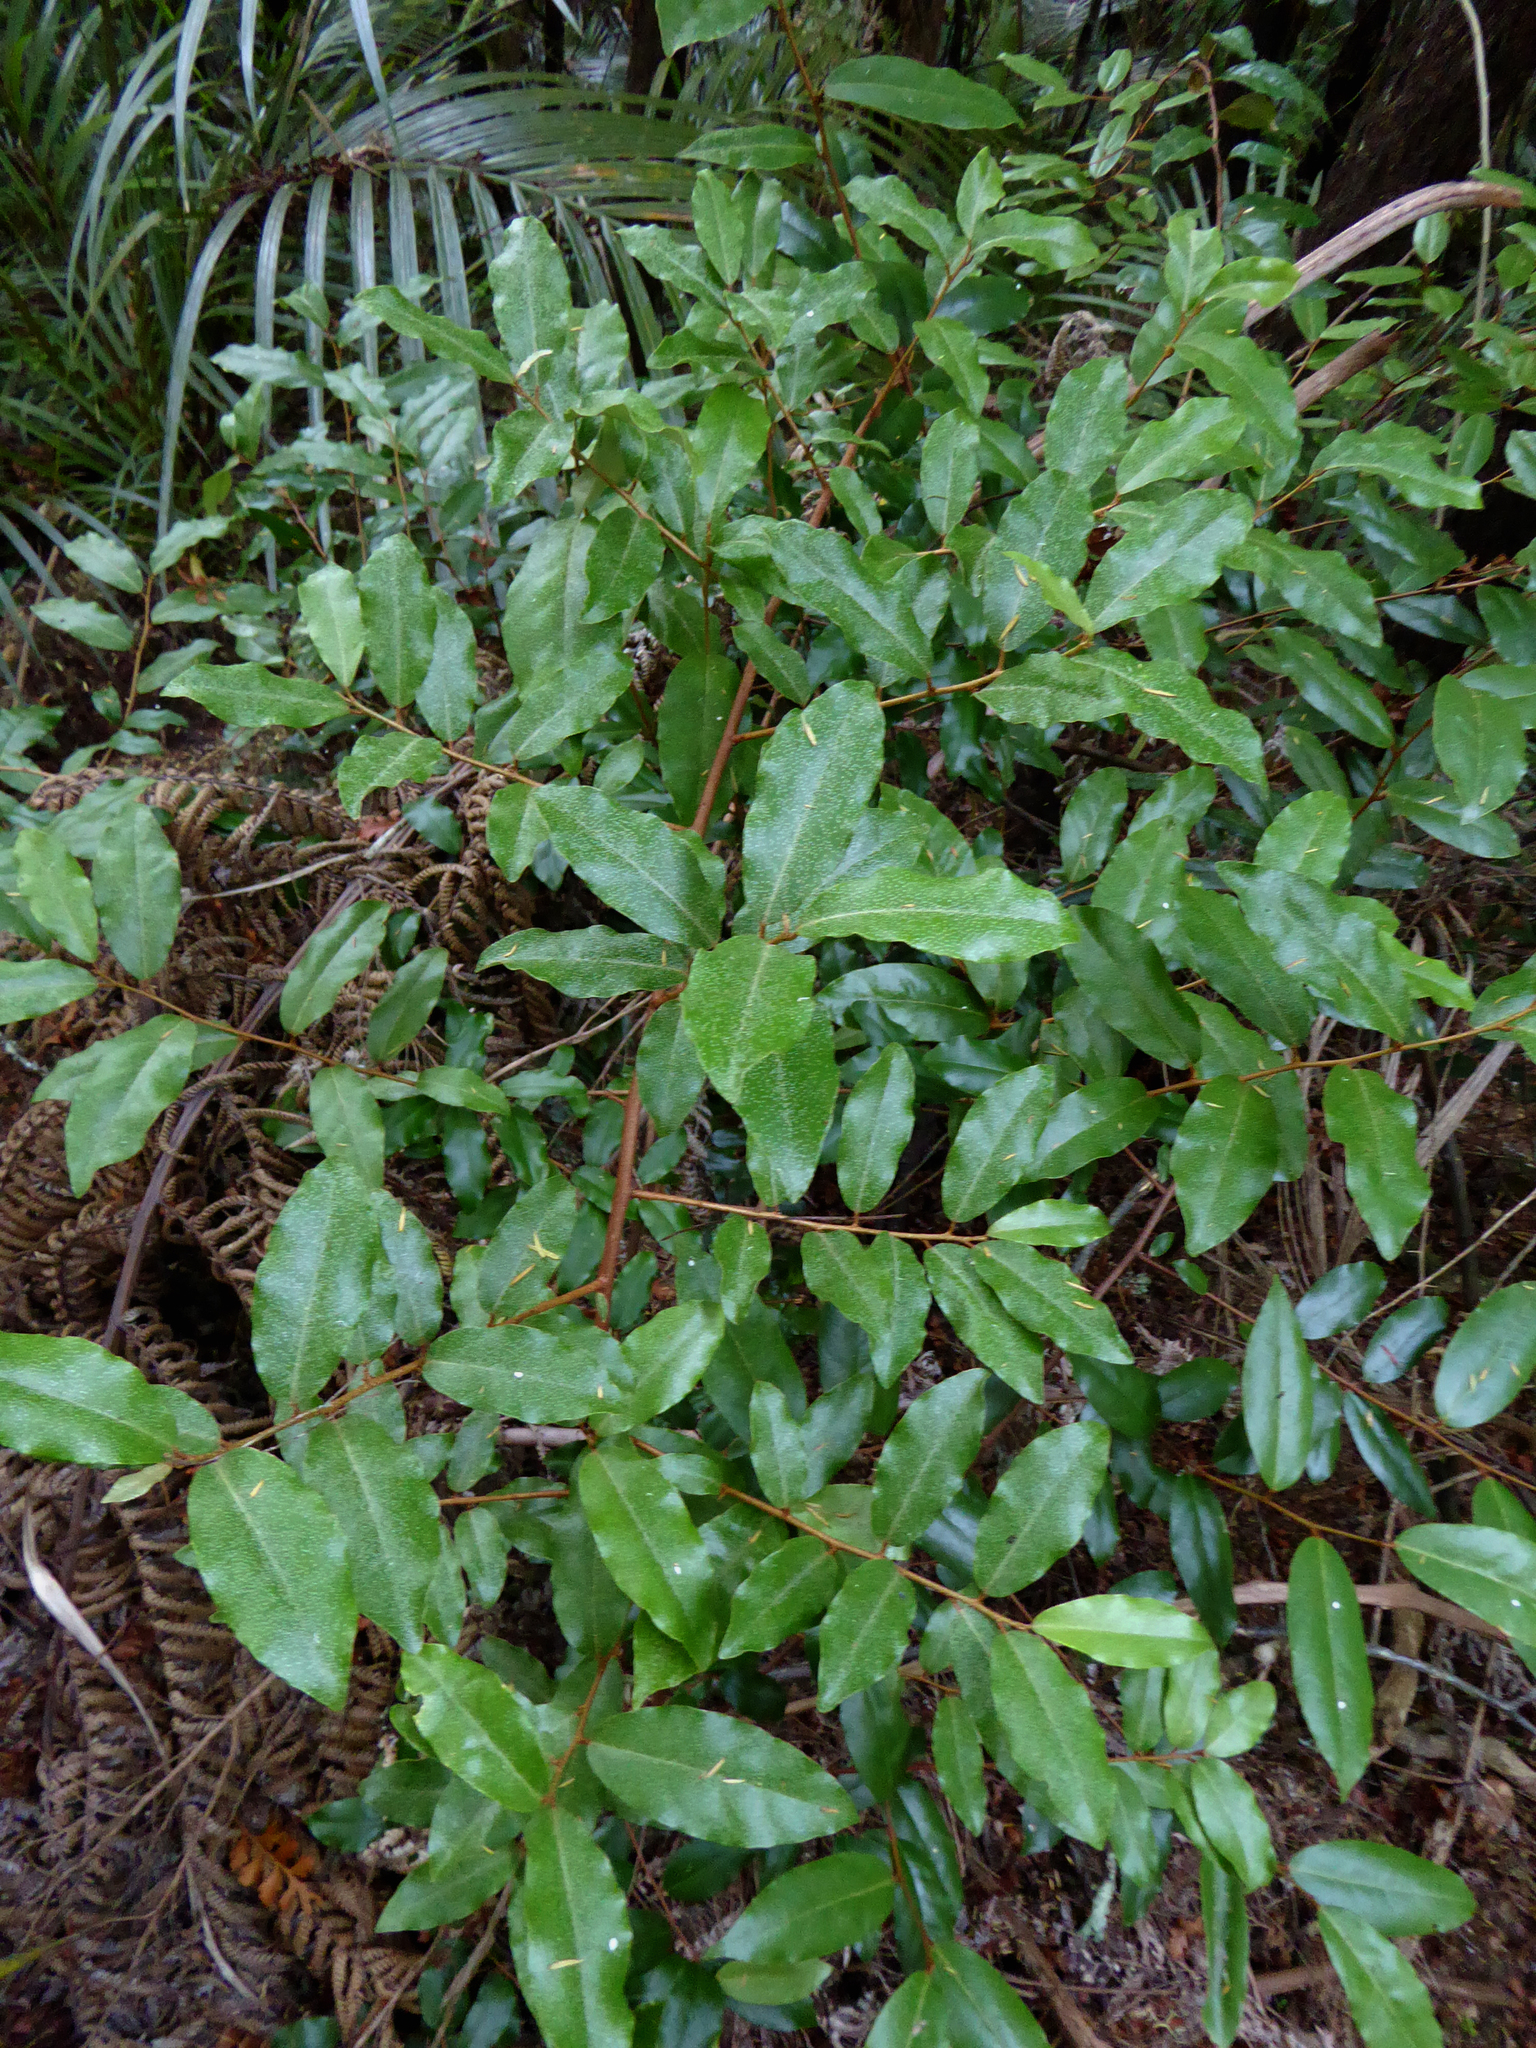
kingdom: Plantae
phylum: Tracheophyta
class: Magnoliopsida
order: Rosales
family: Elaeagnaceae
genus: Elaeagnus
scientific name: Elaeagnus reflexa
